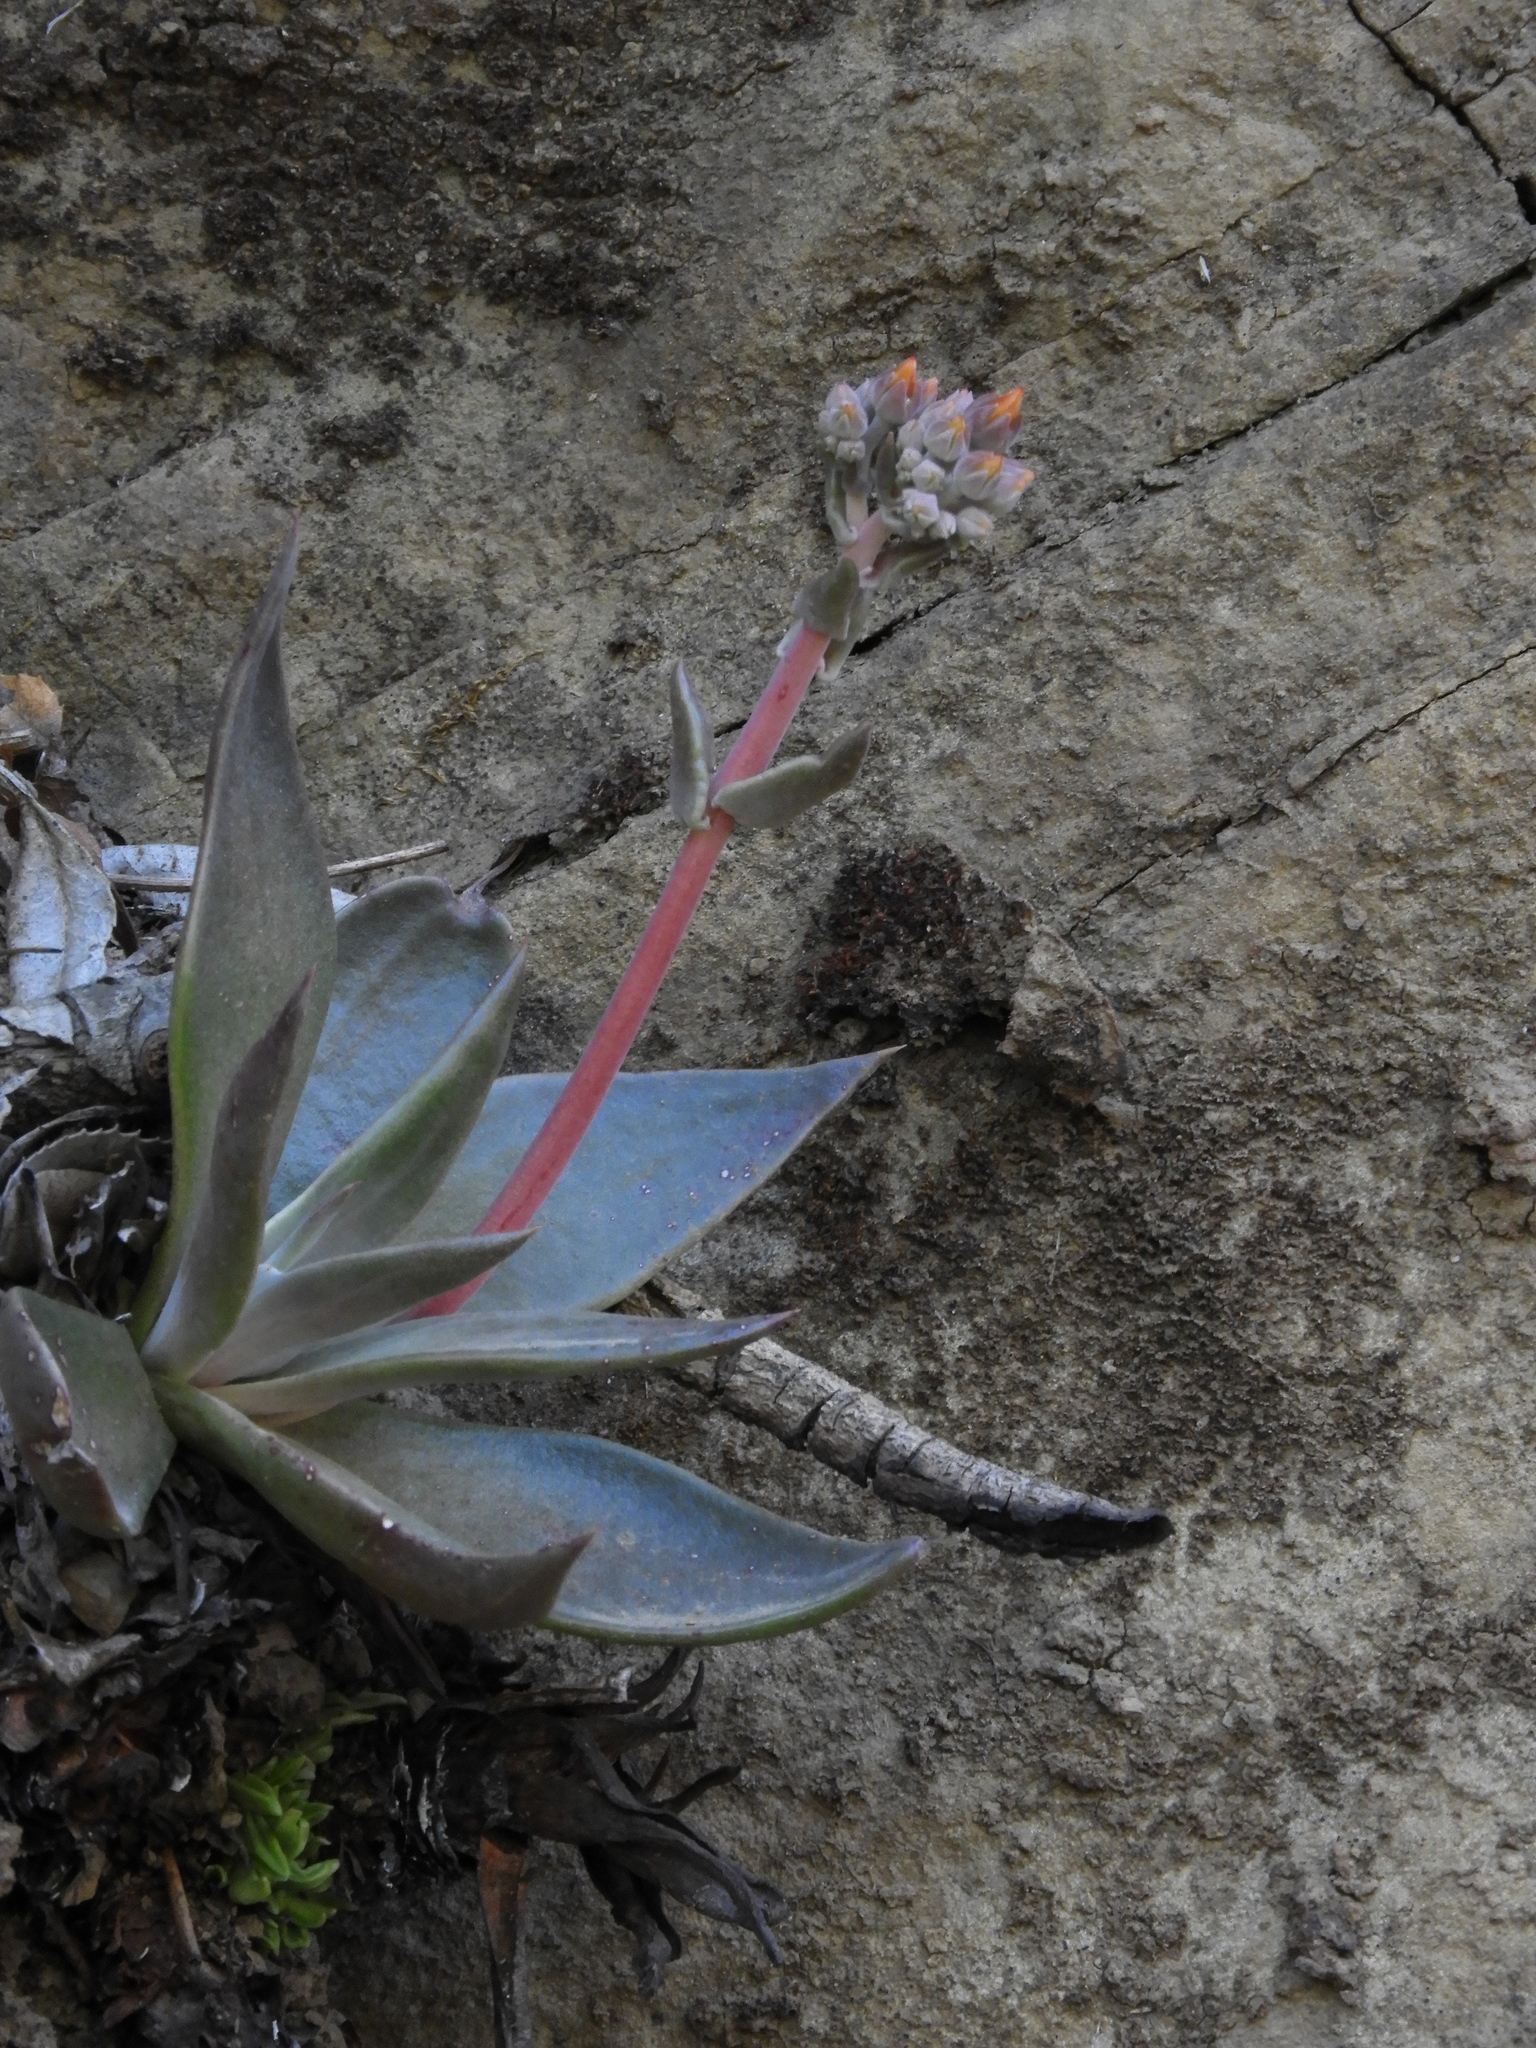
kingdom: Plantae
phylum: Tracheophyta
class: Magnoliopsida
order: Saxifragales
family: Crassulaceae
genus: Dudleya
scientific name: Dudleya cymosa
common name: Canyon dudleya
